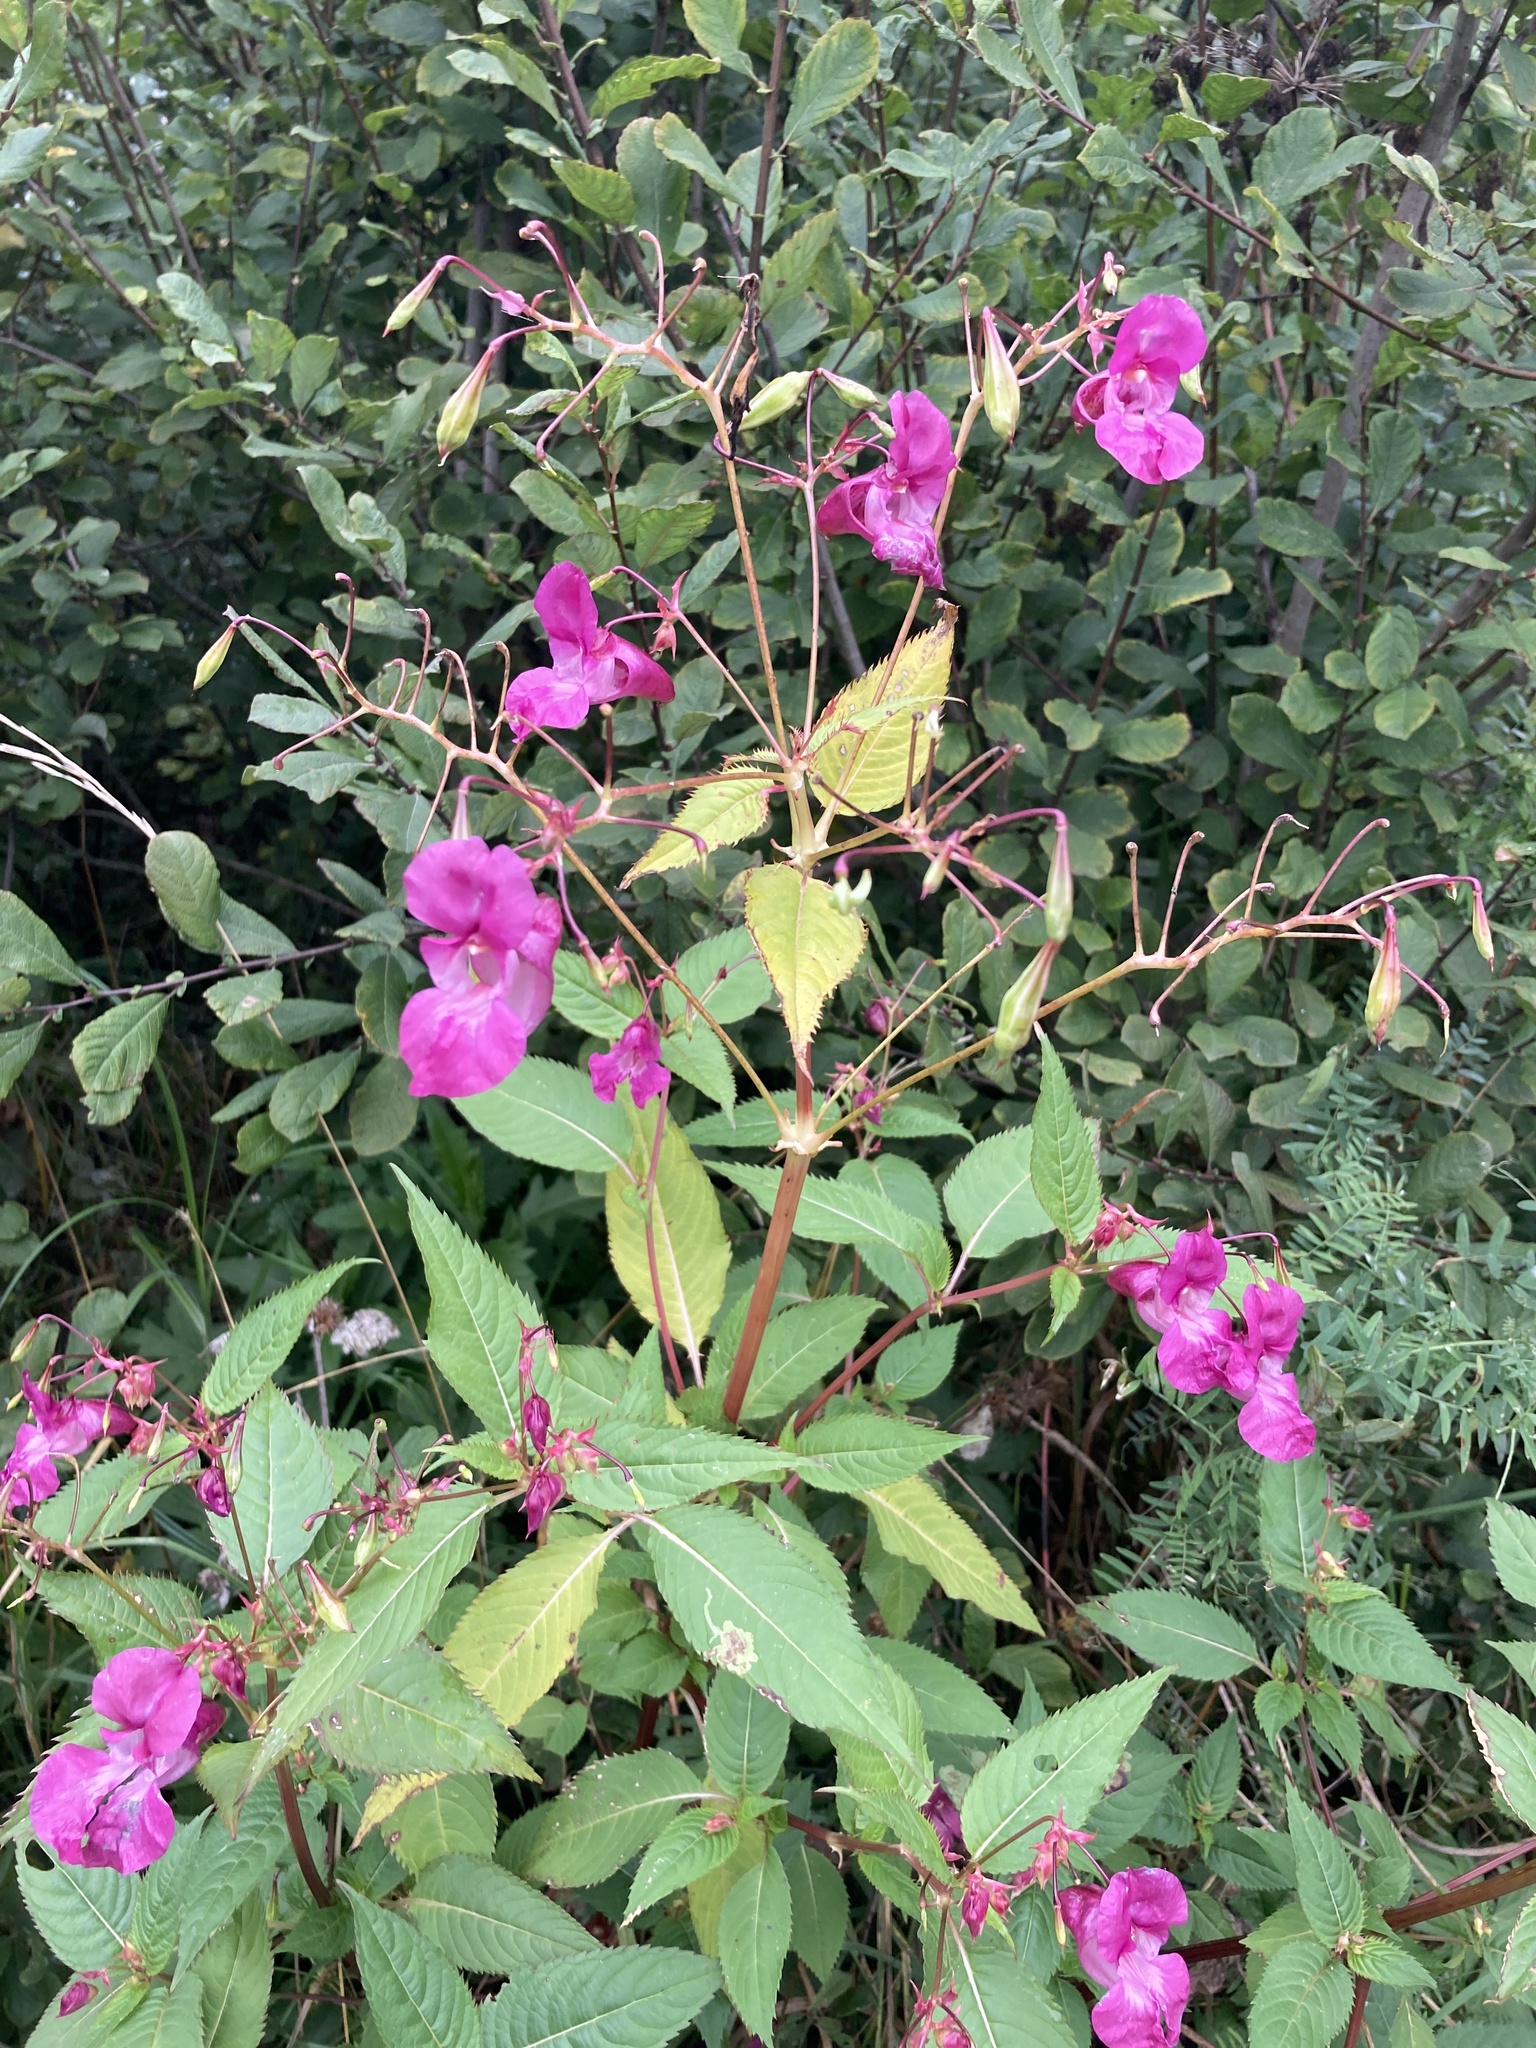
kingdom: Plantae
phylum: Tracheophyta
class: Magnoliopsida
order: Ericales
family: Balsaminaceae
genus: Impatiens
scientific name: Impatiens glandulifera
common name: Himalayan balsam
